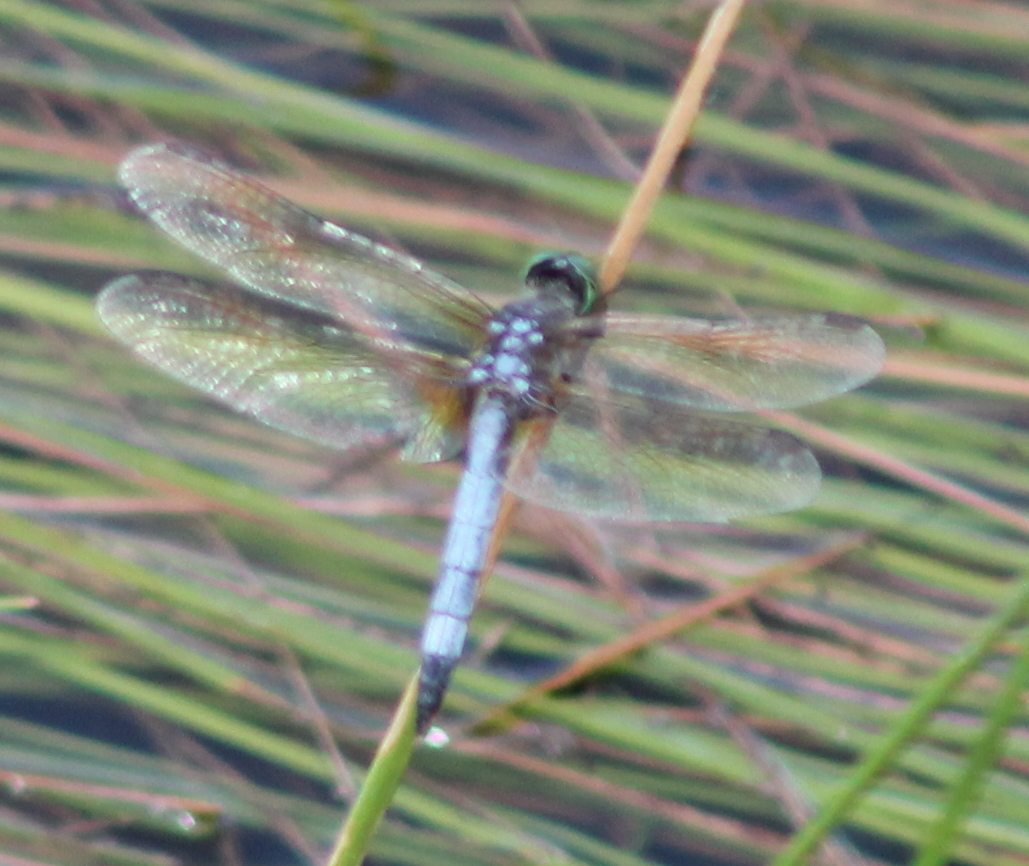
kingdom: Animalia
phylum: Arthropoda
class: Insecta
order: Odonata
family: Libellulidae
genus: Pachydiplax
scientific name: Pachydiplax longipennis
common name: Blue dasher
